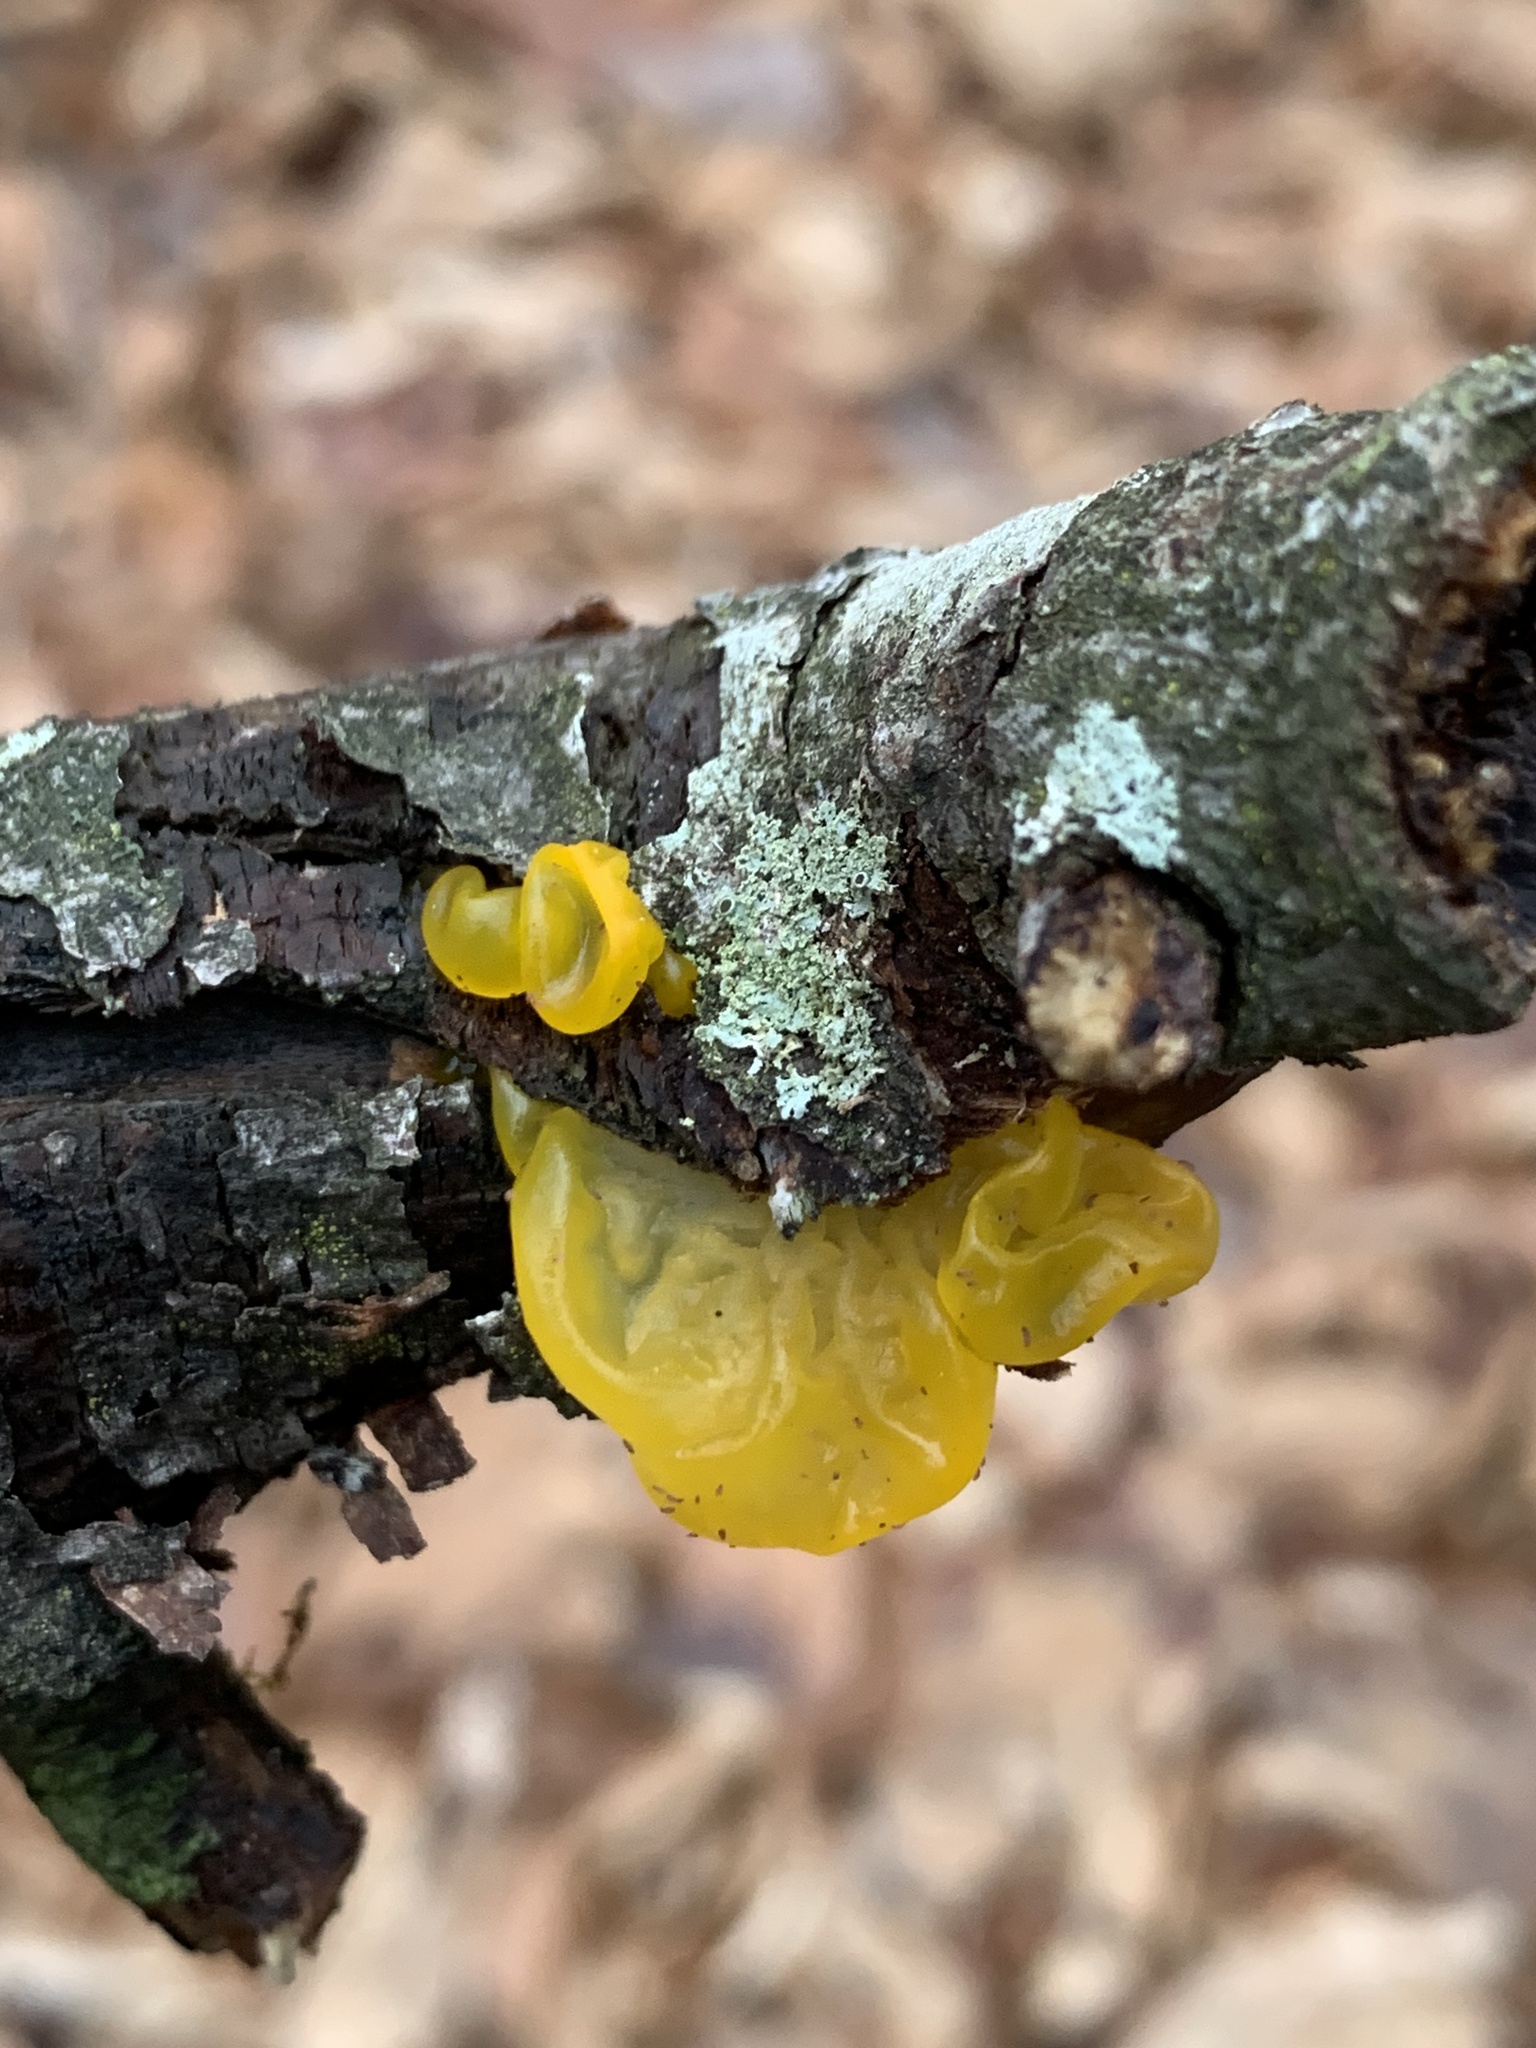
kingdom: Fungi
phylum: Basidiomycota
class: Tremellomycetes
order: Tremellales
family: Tremellaceae
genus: Tremella
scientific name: Tremella mesenterica
